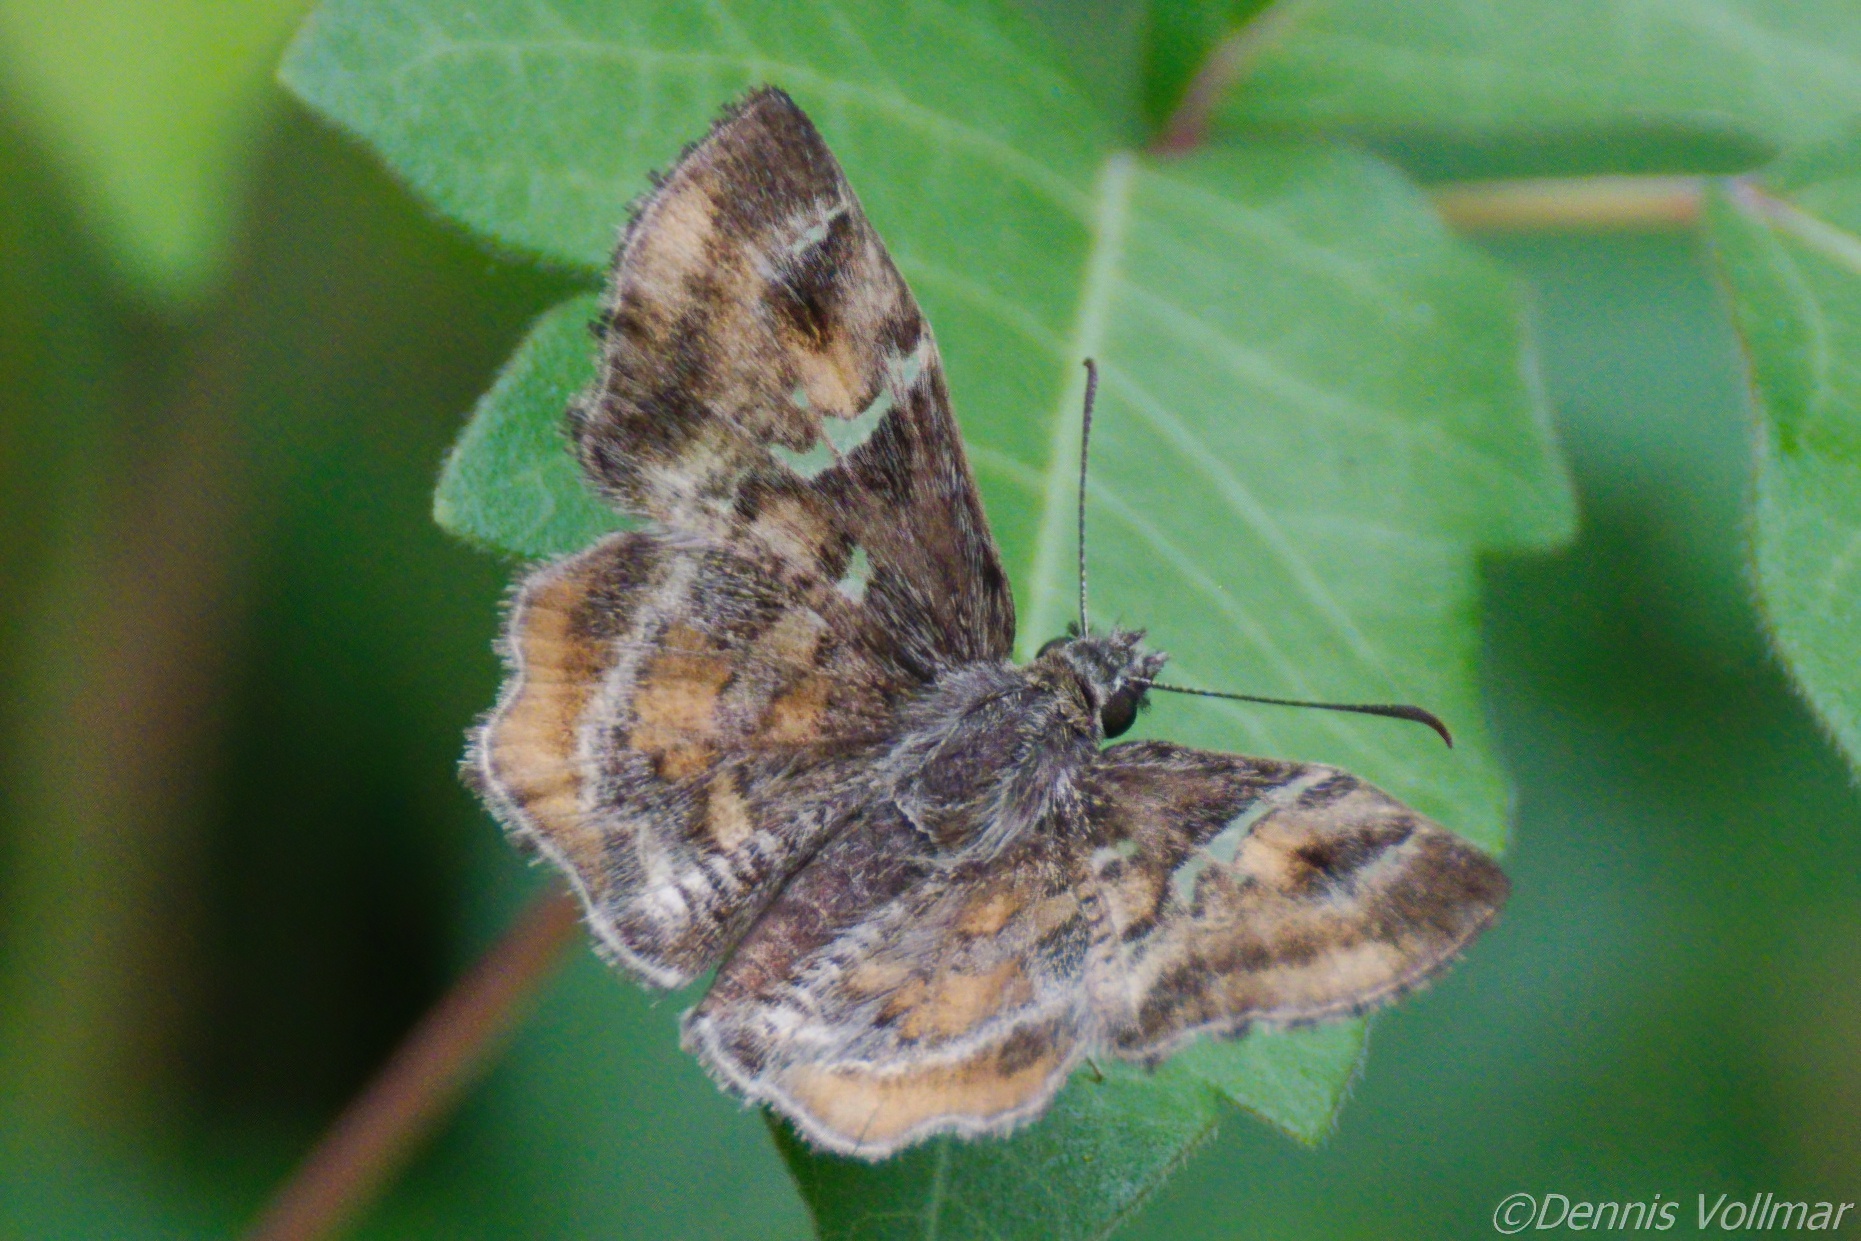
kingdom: Animalia
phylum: Arthropoda
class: Insecta
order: Lepidoptera
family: Hesperiidae
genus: Systasea
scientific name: Systasea pulverulenta
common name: Texas powdered skipper
